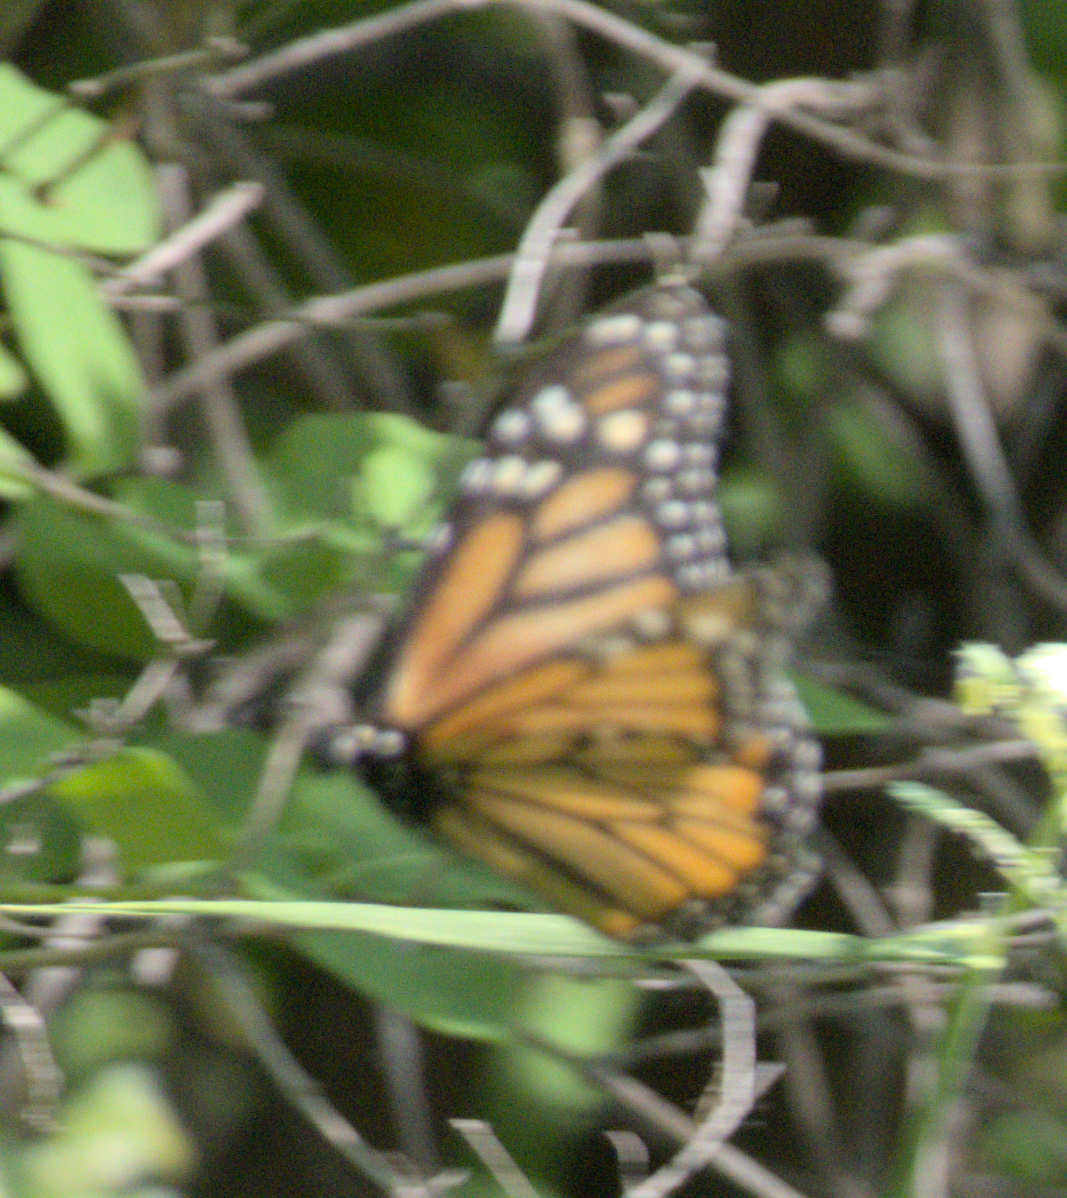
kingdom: Animalia
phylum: Arthropoda
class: Insecta
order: Lepidoptera
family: Nymphalidae
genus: Danaus
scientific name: Danaus plexippus
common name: Monarch
